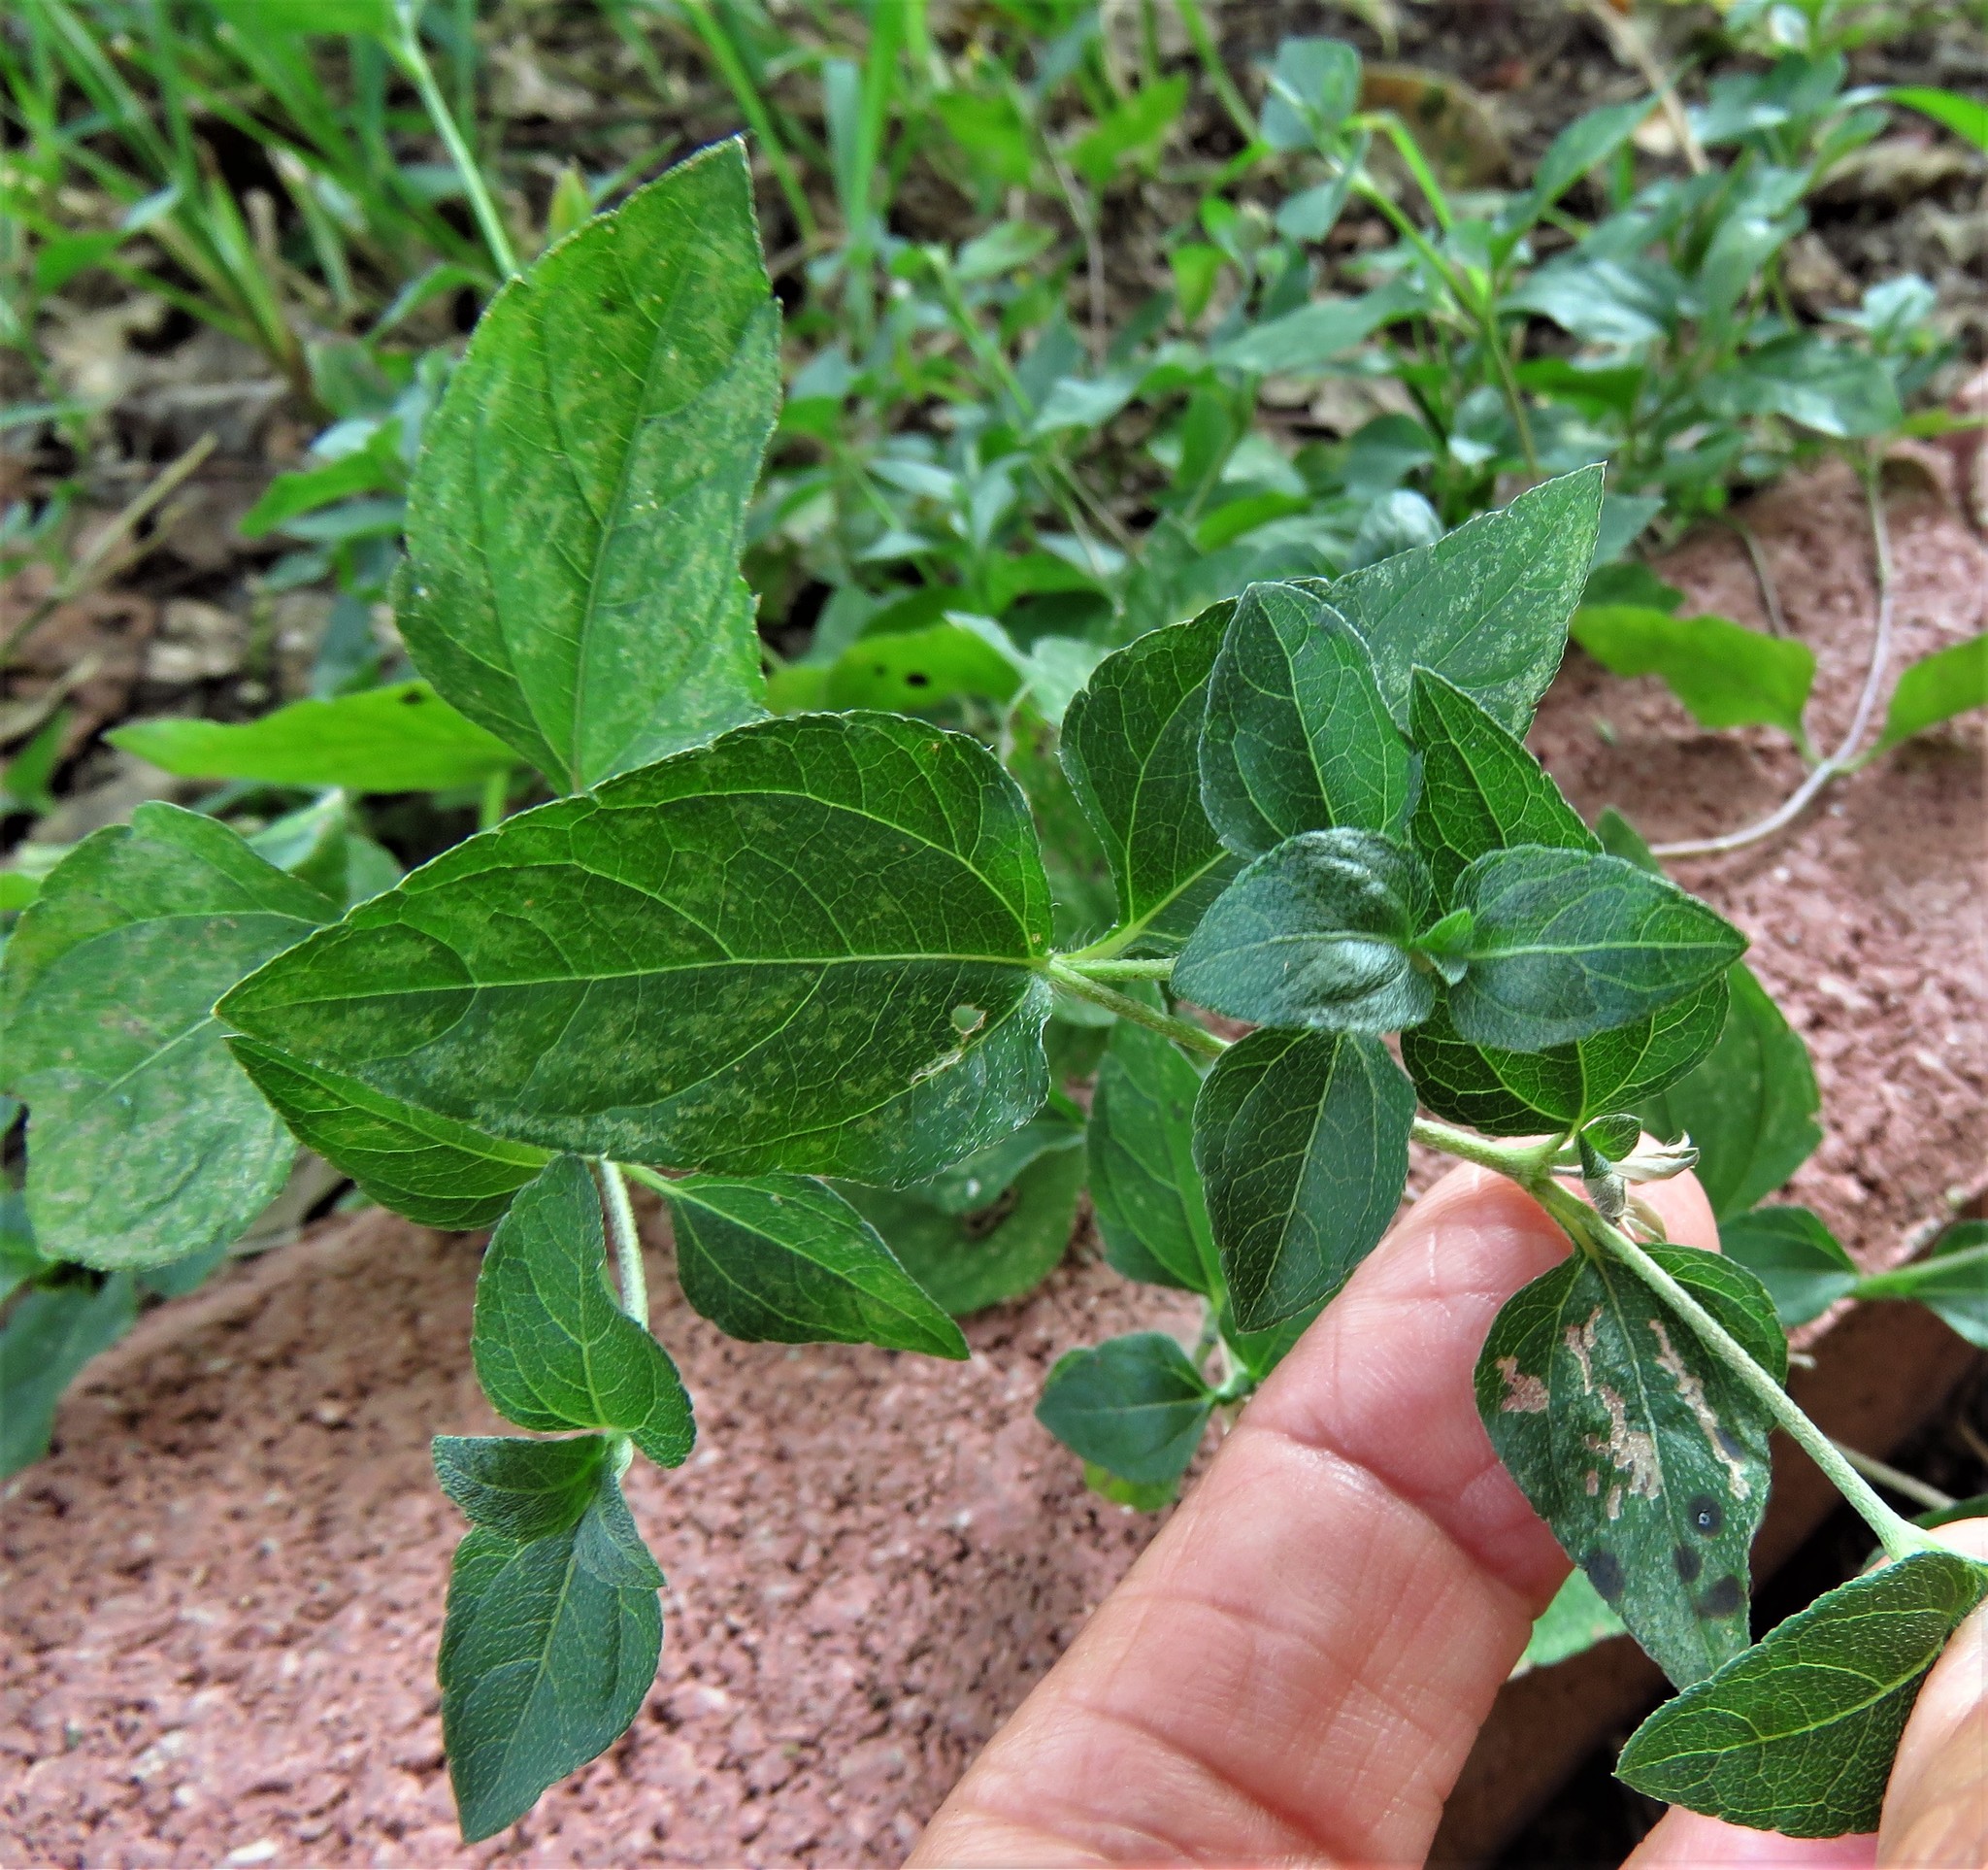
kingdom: Plantae
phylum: Tracheophyta
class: Magnoliopsida
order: Asterales
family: Asteraceae
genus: Calyptocarpus
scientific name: Calyptocarpus vialis
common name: Straggler daisy
